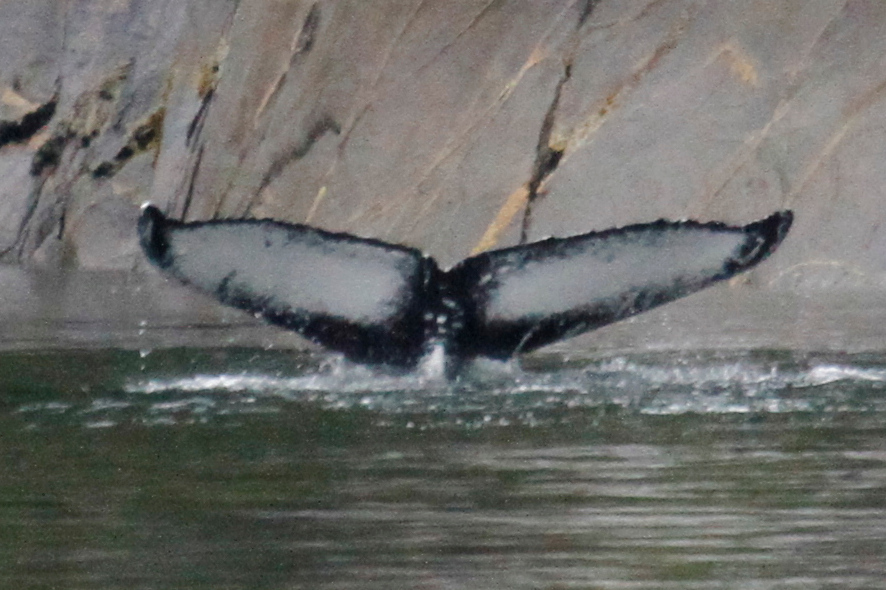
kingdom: Animalia
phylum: Chordata
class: Mammalia
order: Cetacea
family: Balaenopteridae
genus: Megaptera
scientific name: Megaptera novaeangliae
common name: Humpback whale
